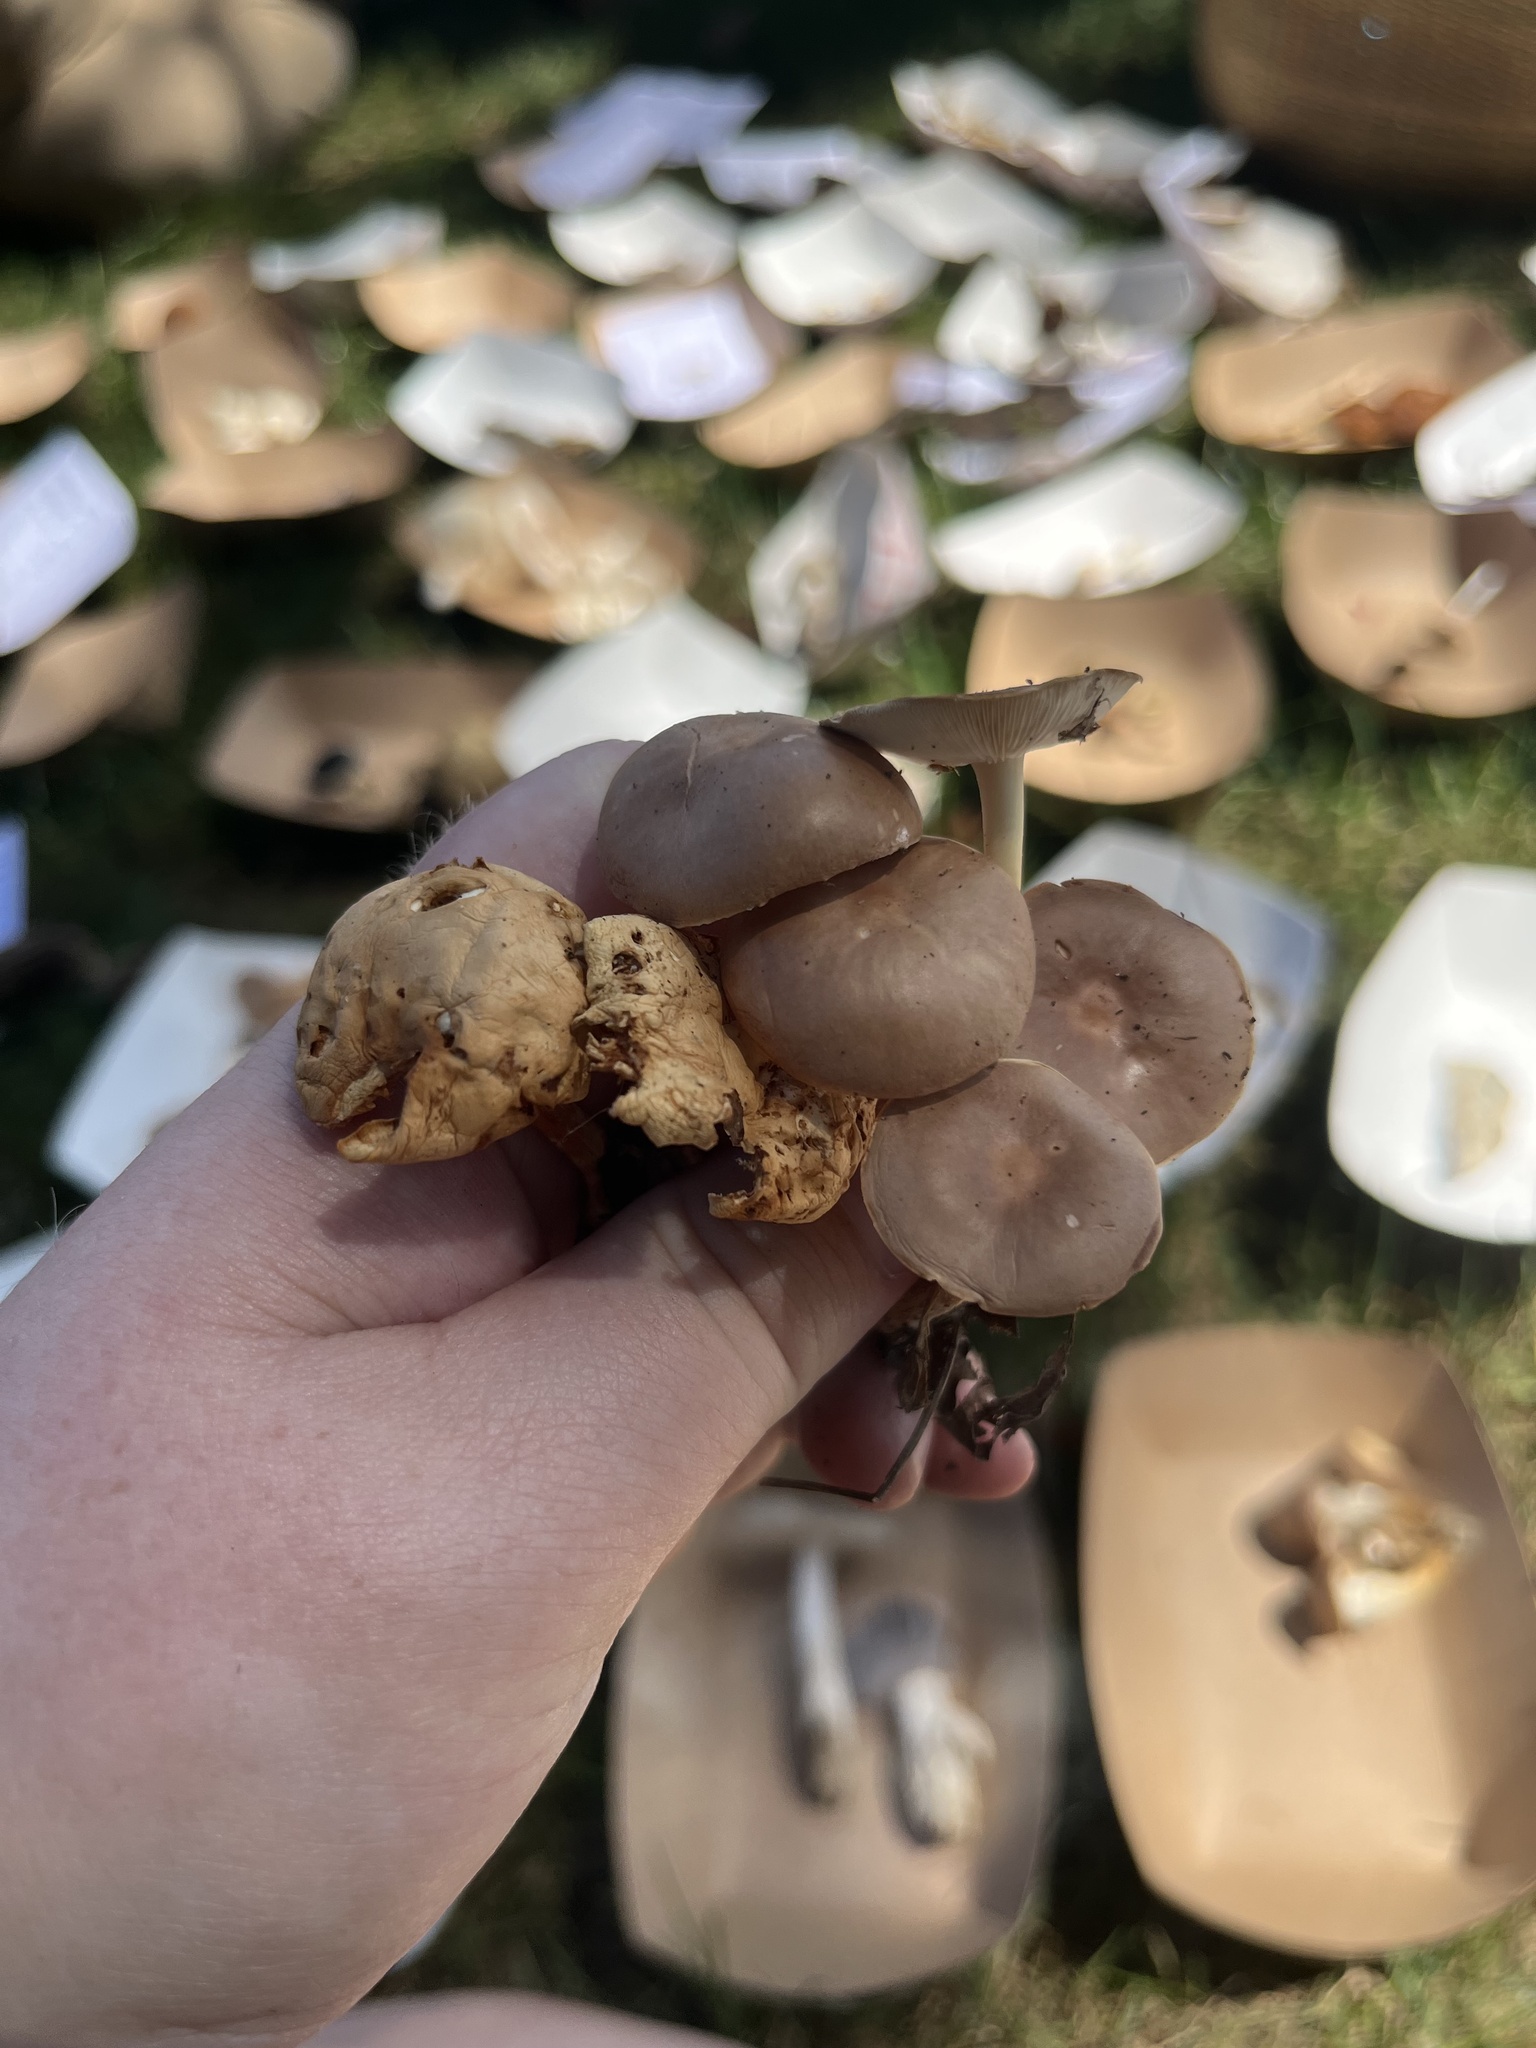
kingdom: Fungi
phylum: Basidiomycota
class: Agaricomycetes
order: Agaricales
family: Omphalotaceae
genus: Gymnopus
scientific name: Gymnopus dryophilus
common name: Penny top
